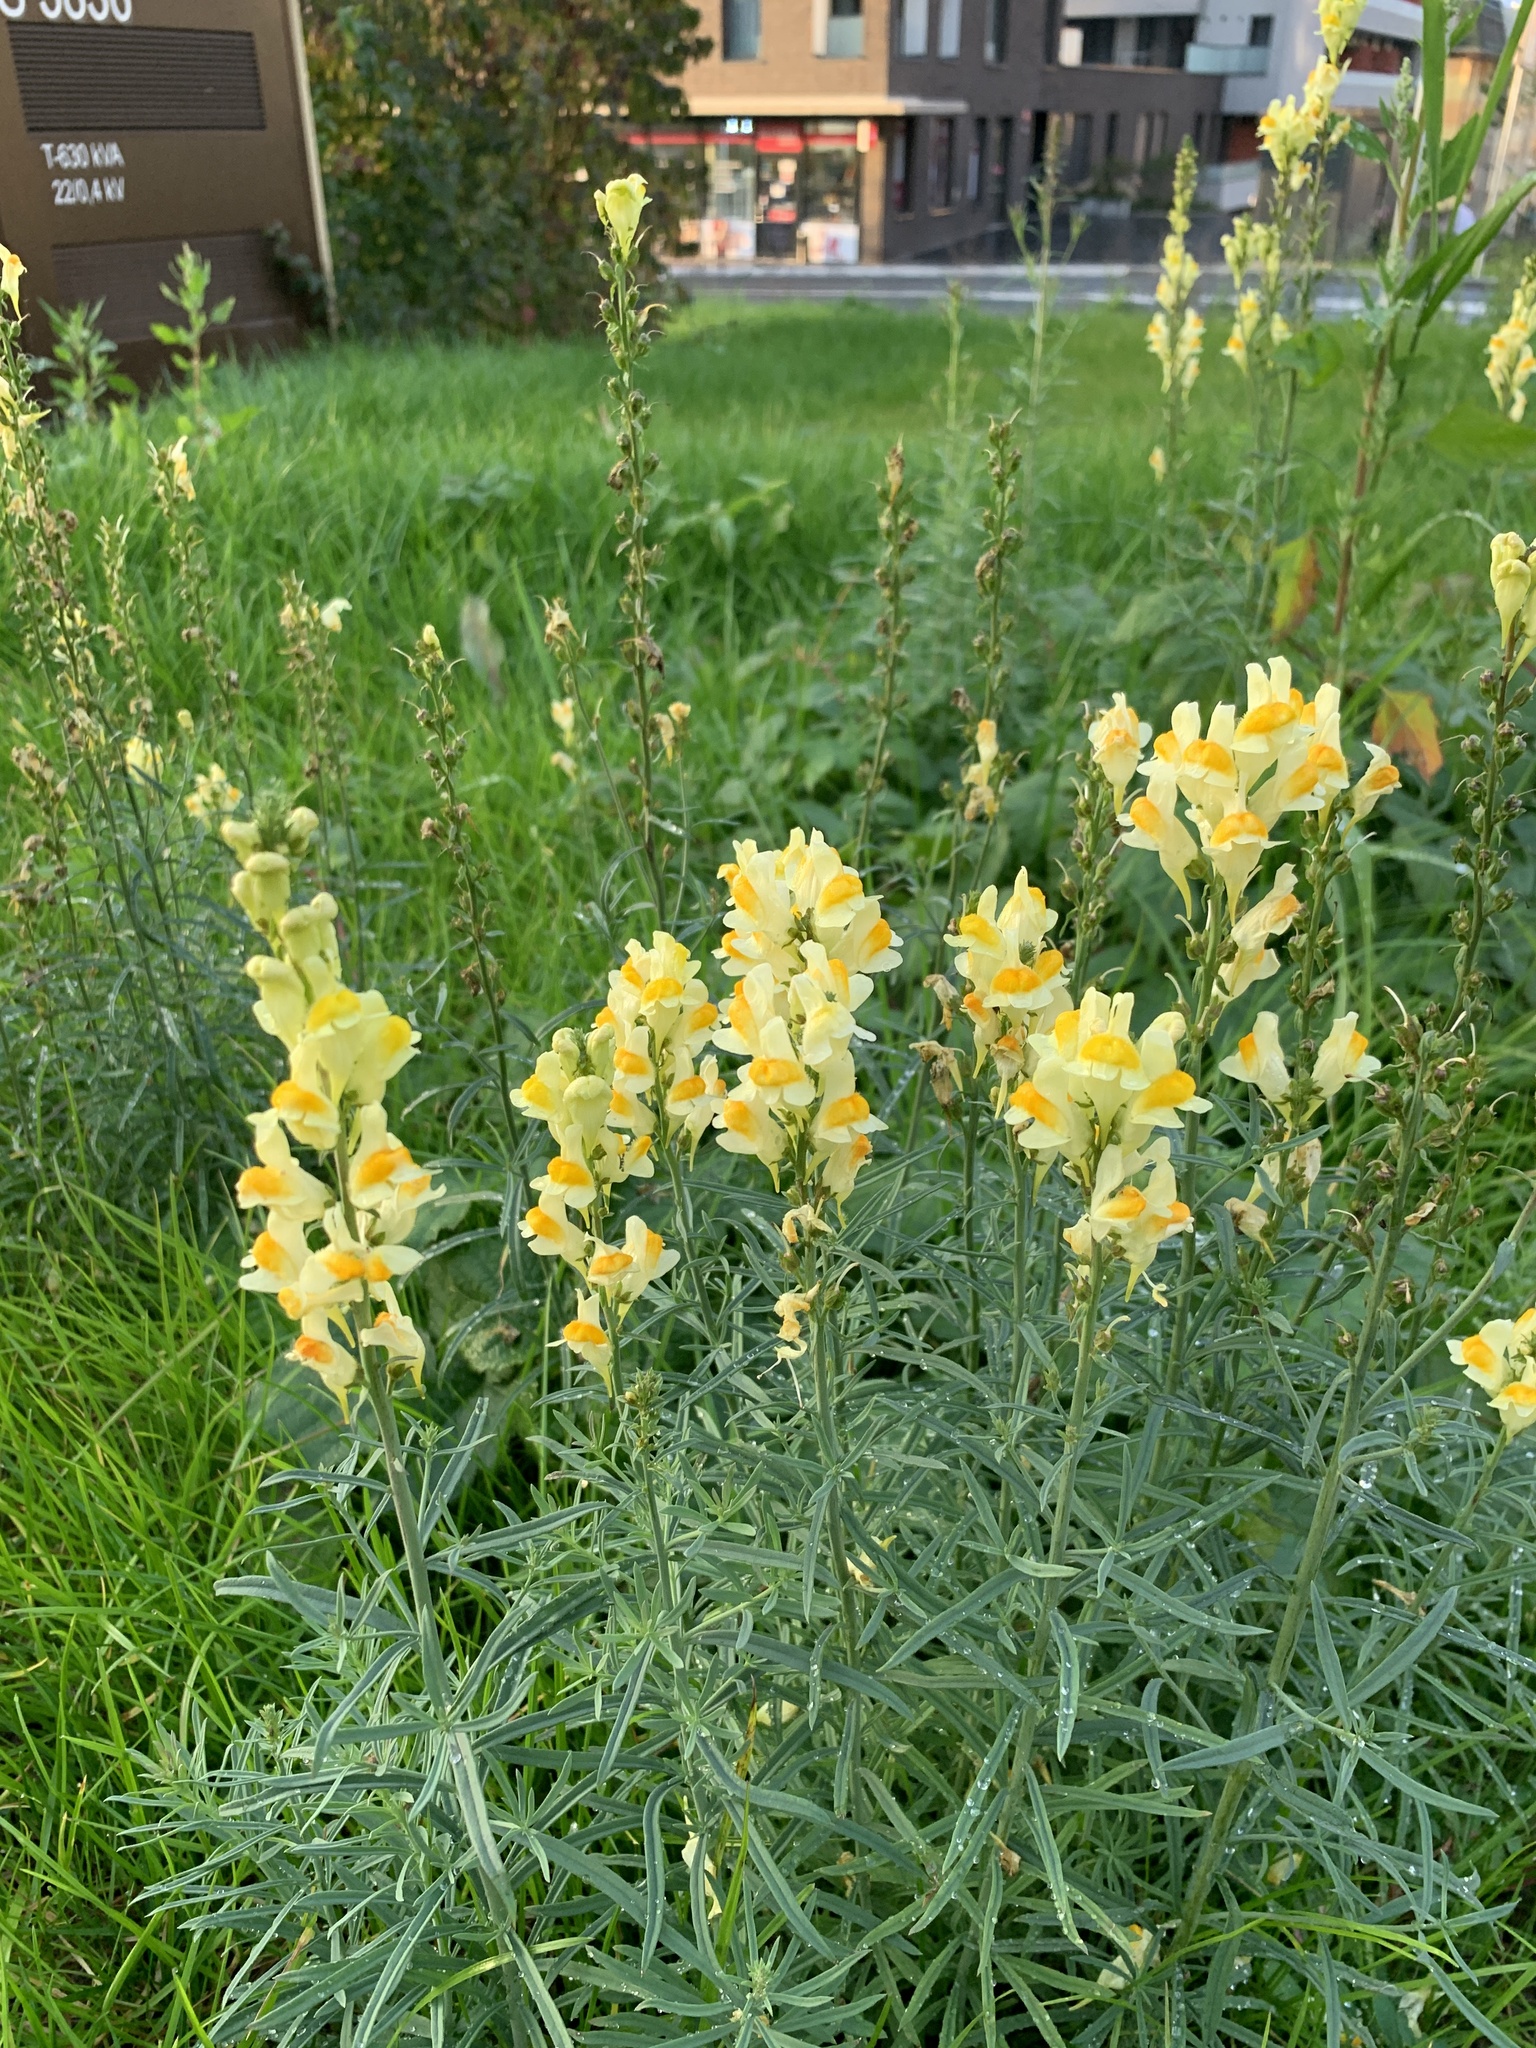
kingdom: Plantae
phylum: Tracheophyta
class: Magnoliopsida
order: Lamiales
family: Plantaginaceae
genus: Linaria
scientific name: Linaria vulgaris
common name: Butter and eggs
